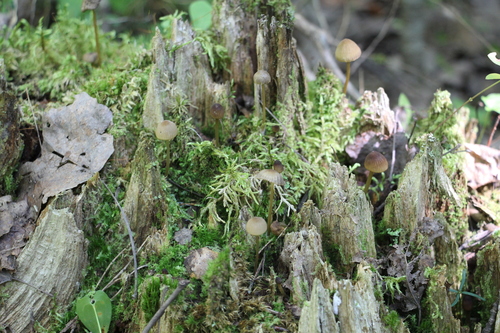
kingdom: Fungi
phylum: Basidiomycota
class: Agaricomycetes
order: Agaricales
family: Mycenaceae
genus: Mycena
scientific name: Mycena viridimarginata
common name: Olive edge bonnet
